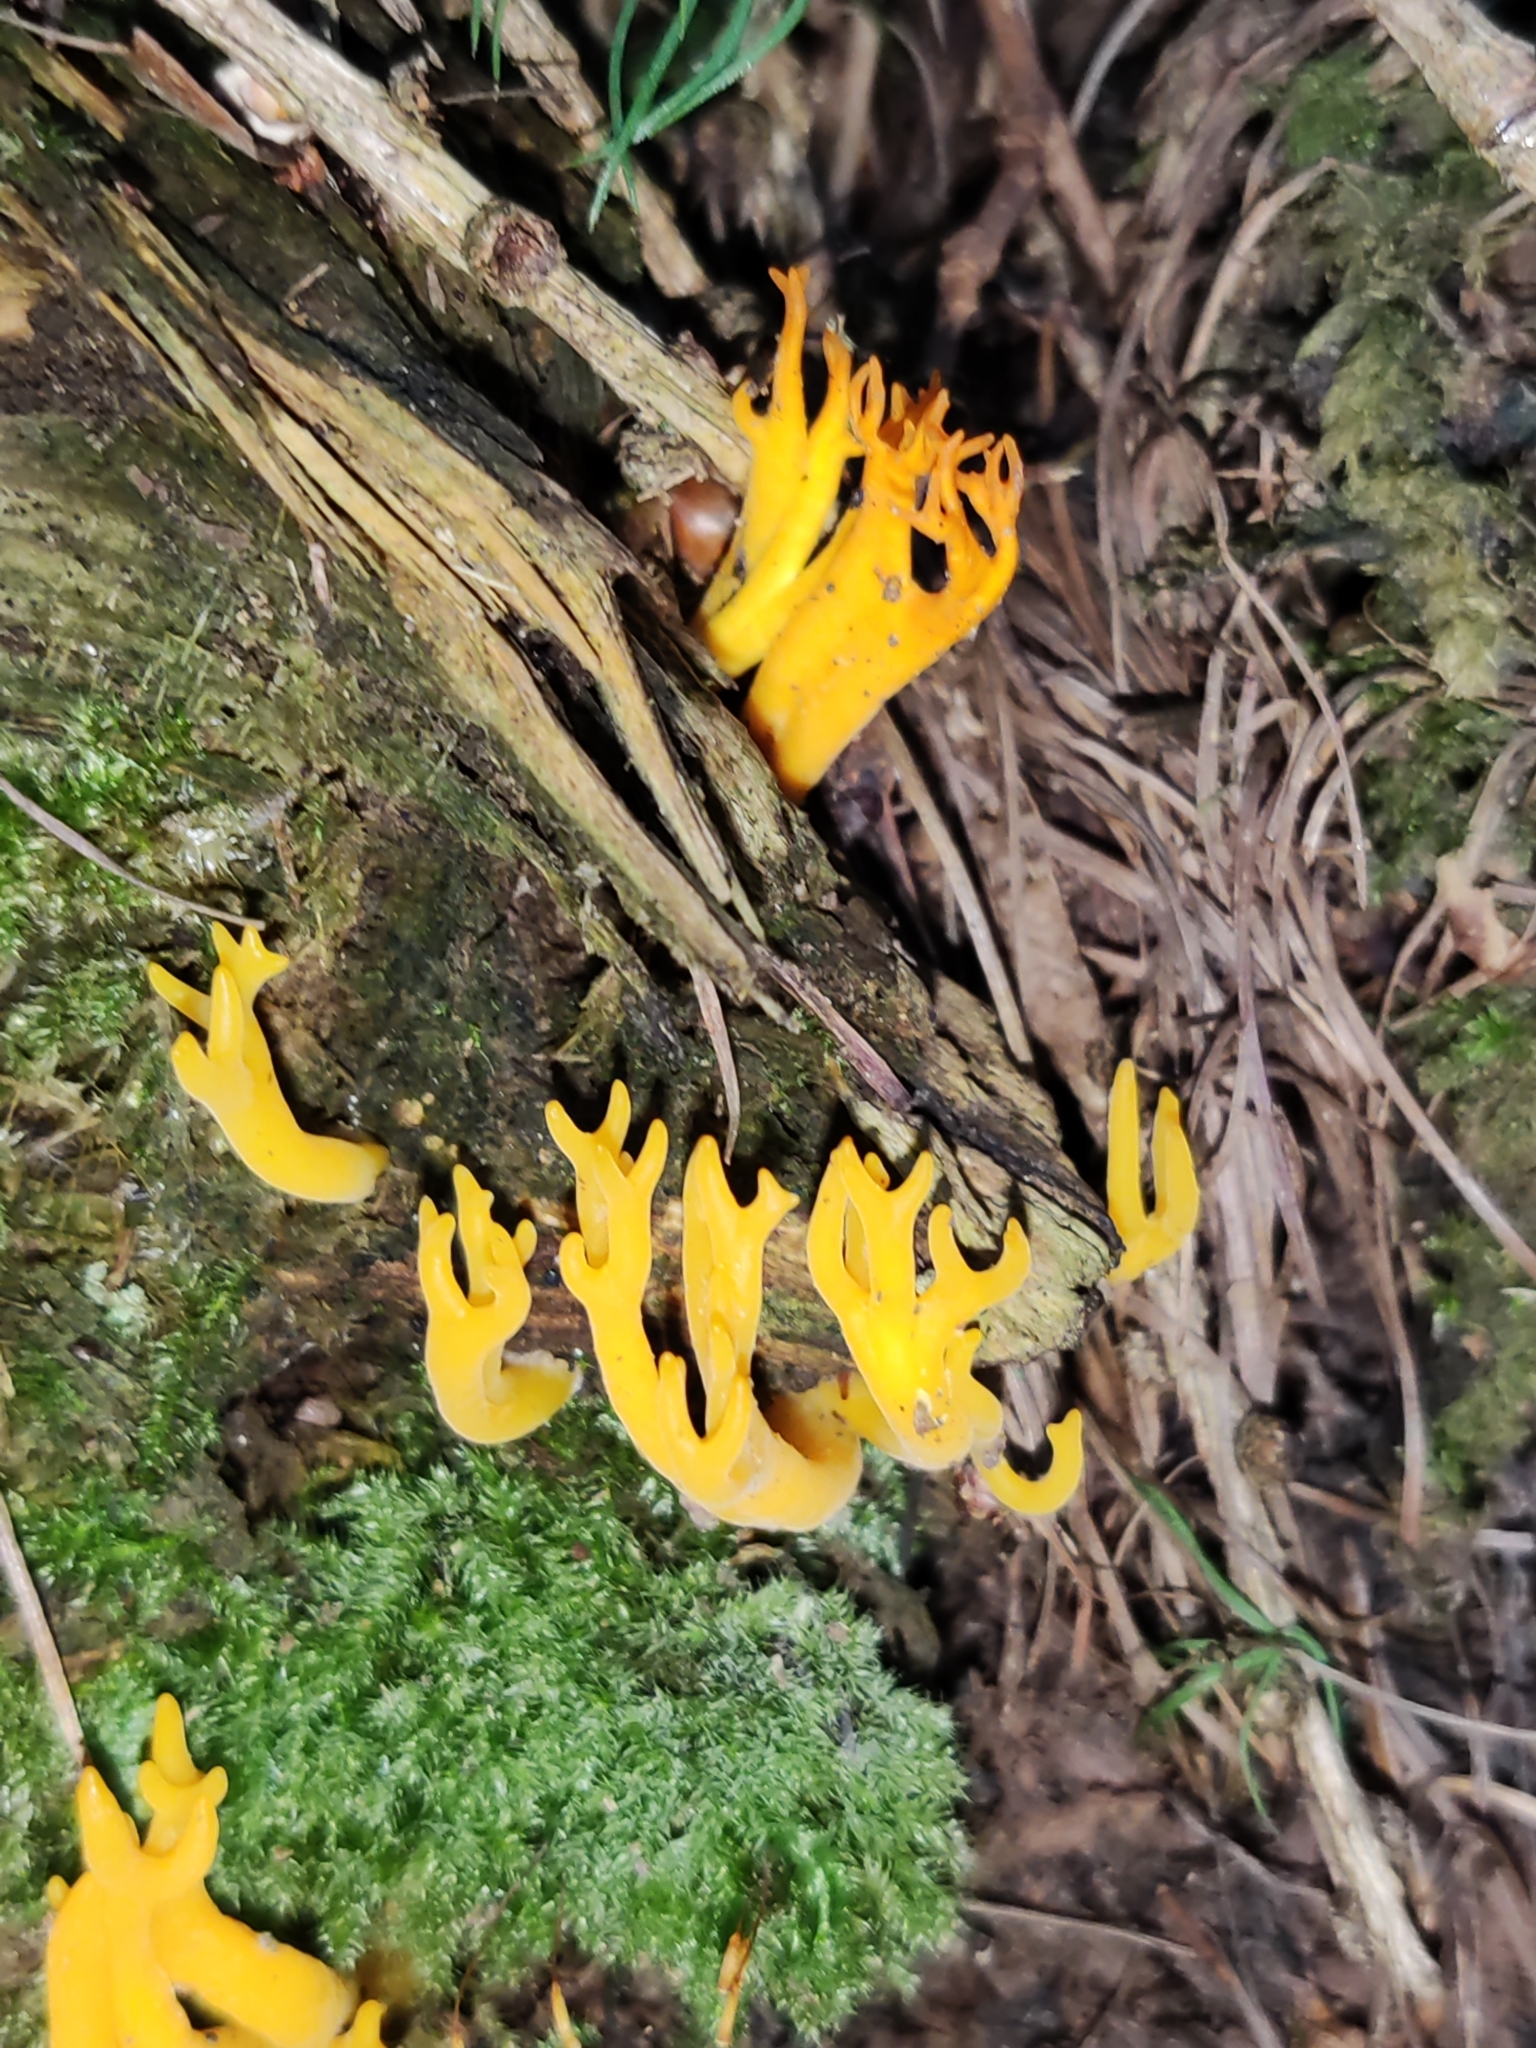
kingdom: Fungi
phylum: Basidiomycota
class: Dacrymycetes
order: Dacrymycetales
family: Dacrymycetaceae
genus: Calocera
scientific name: Calocera viscosa
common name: Yellow stagshorn
